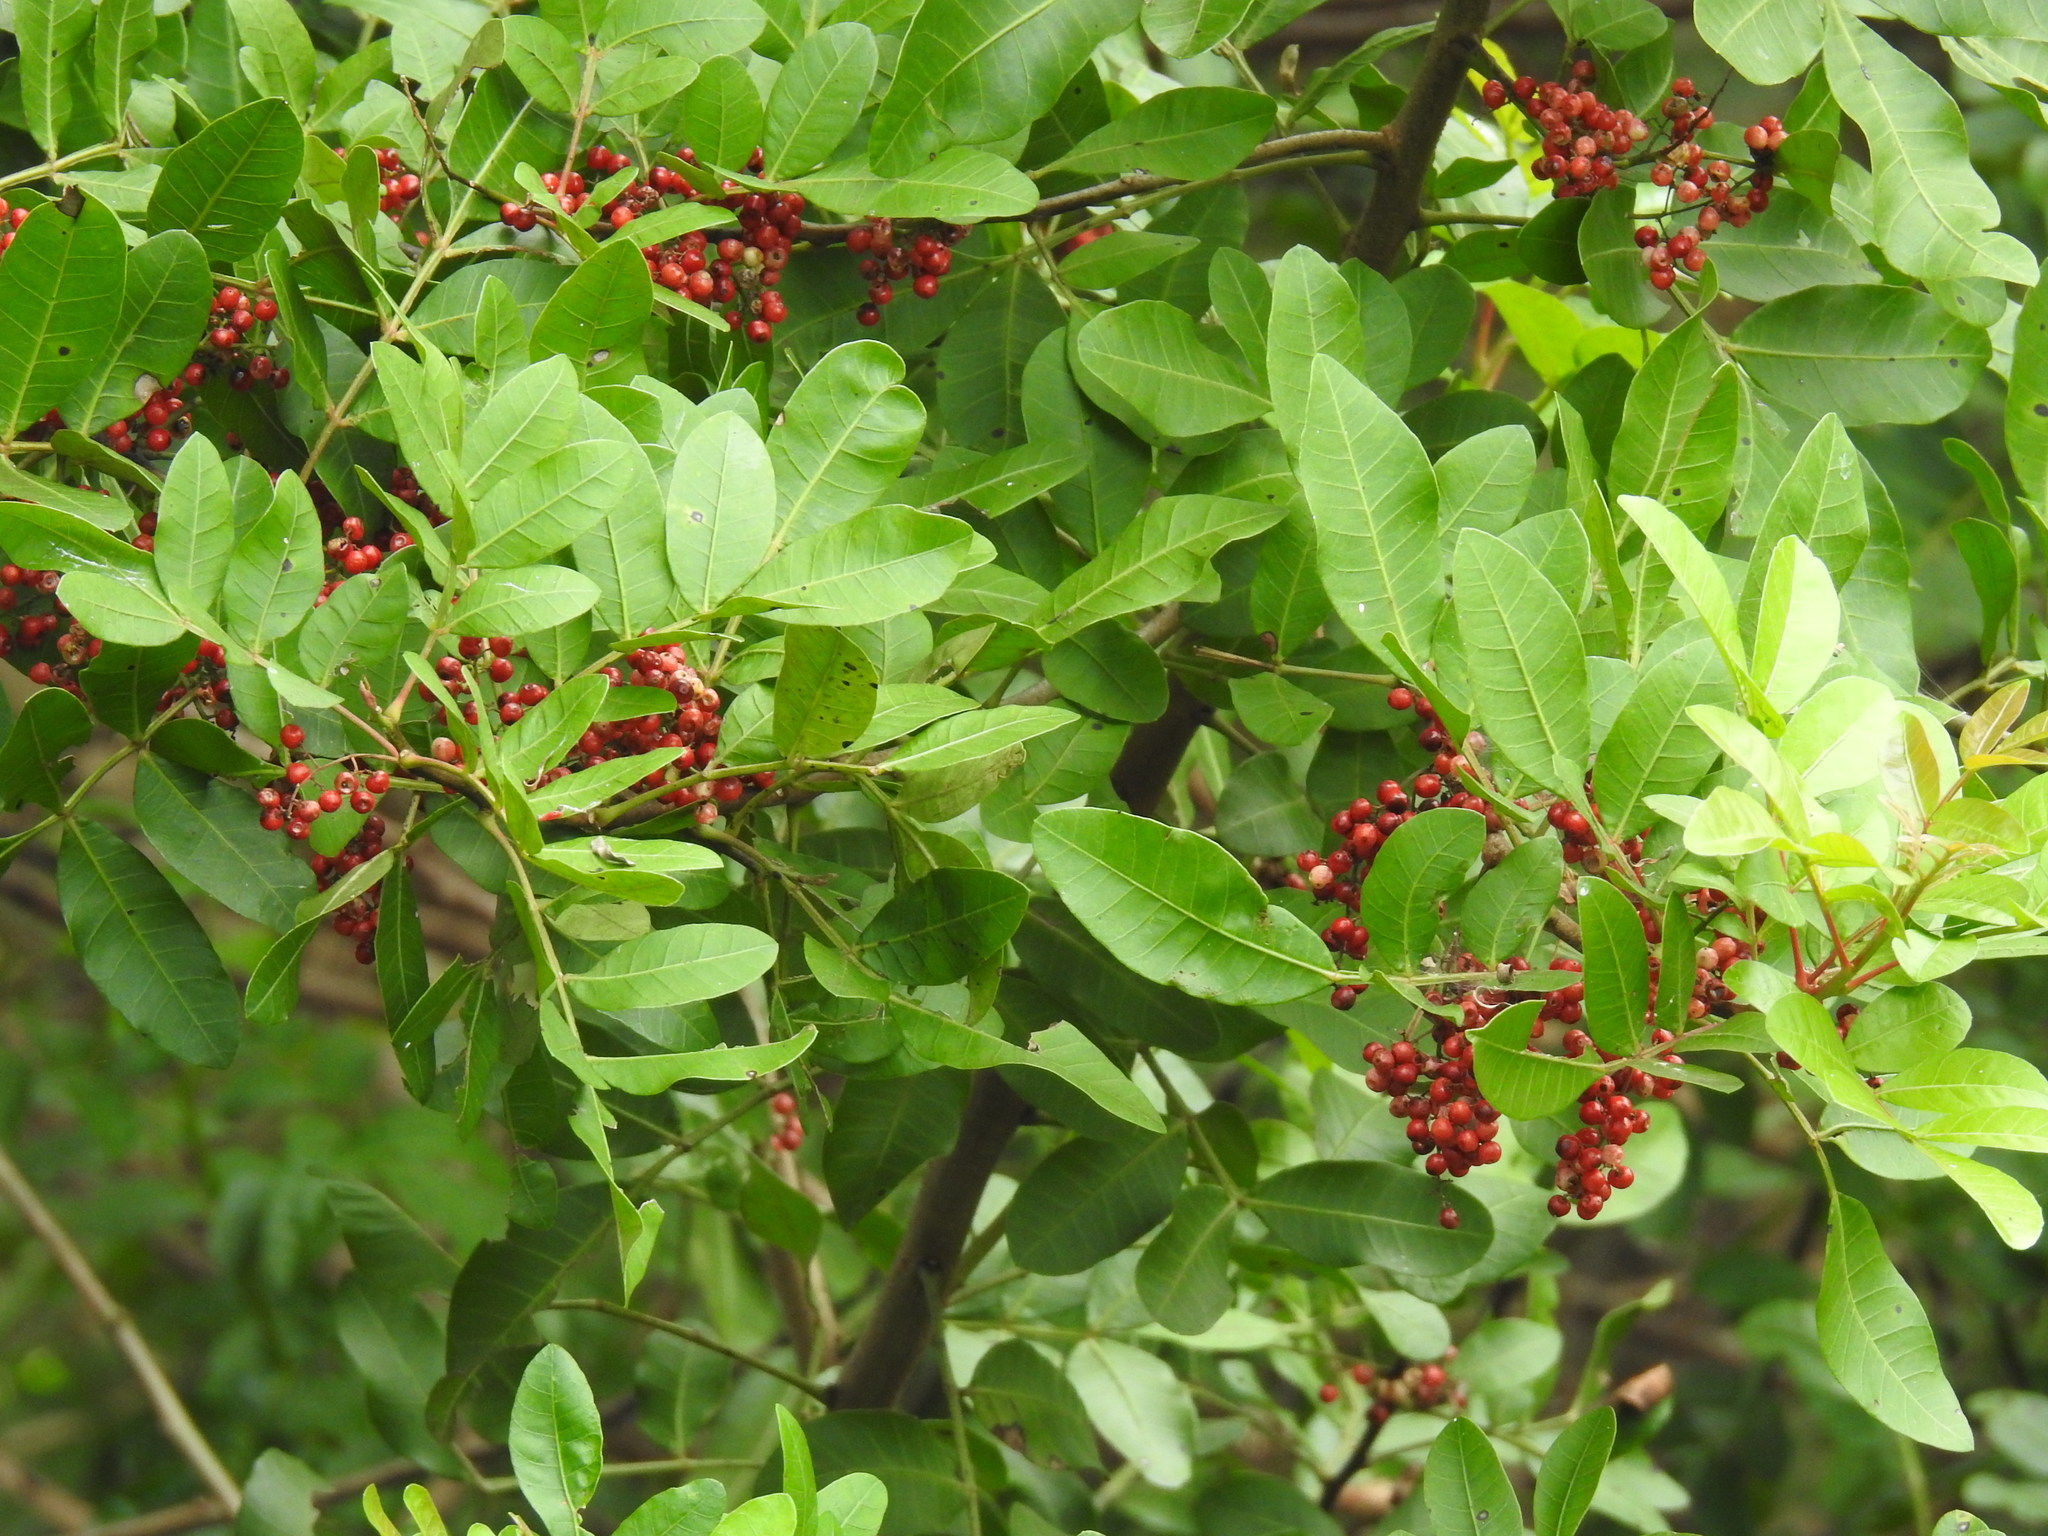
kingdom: Plantae
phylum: Tracheophyta
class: Magnoliopsida
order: Sapindales
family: Anacardiaceae
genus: Schinus
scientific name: Schinus terebinthifolia
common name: Brazilian peppertree
